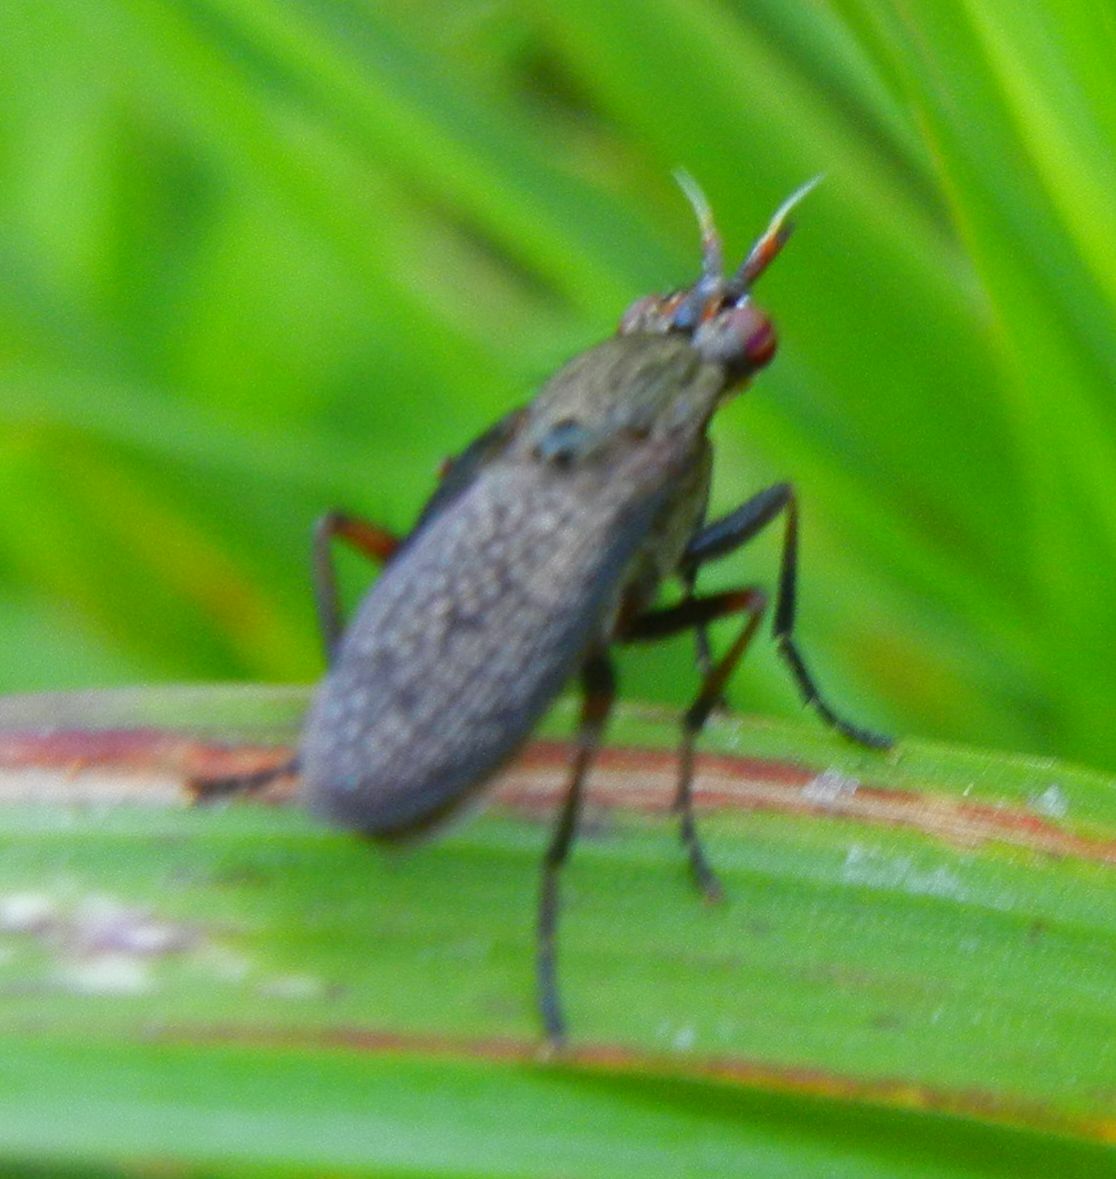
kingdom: Animalia
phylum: Arthropoda
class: Insecta
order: Diptera
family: Sciomyzidae
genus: Coremacera
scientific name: Coremacera marginata
